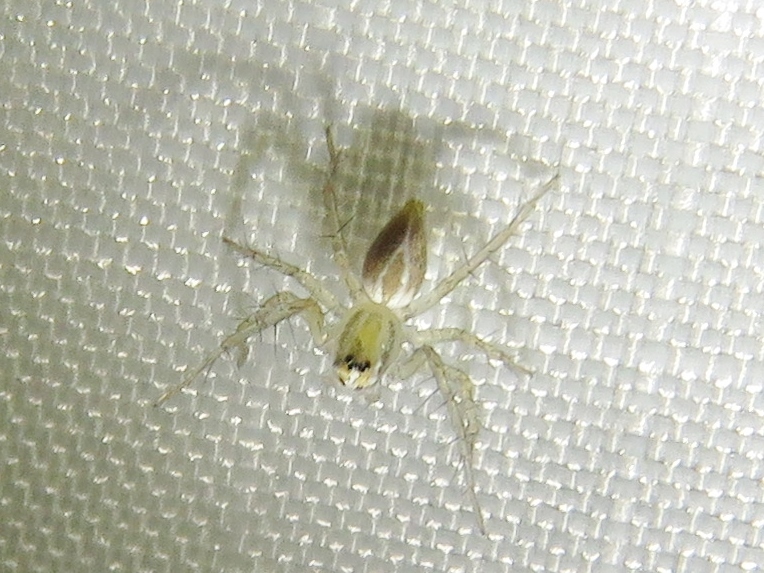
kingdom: Animalia
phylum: Arthropoda
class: Arachnida
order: Araneae
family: Oxyopidae
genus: Oxyopes
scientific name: Oxyopes salticus
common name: Lynx spiders
